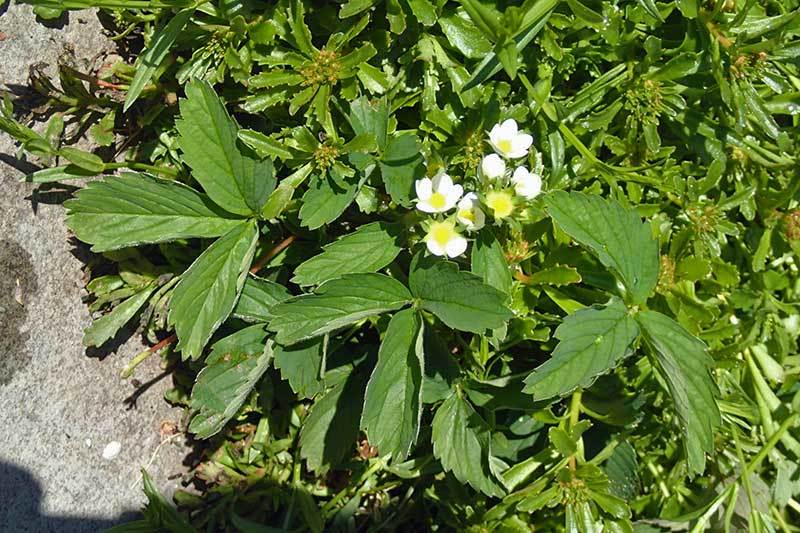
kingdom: Plantae
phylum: Tracheophyta
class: Magnoliopsida
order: Rosales
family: Rosaceae
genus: Fragaria
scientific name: Fragaria virginiana
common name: Thickleaved wild strawberry
